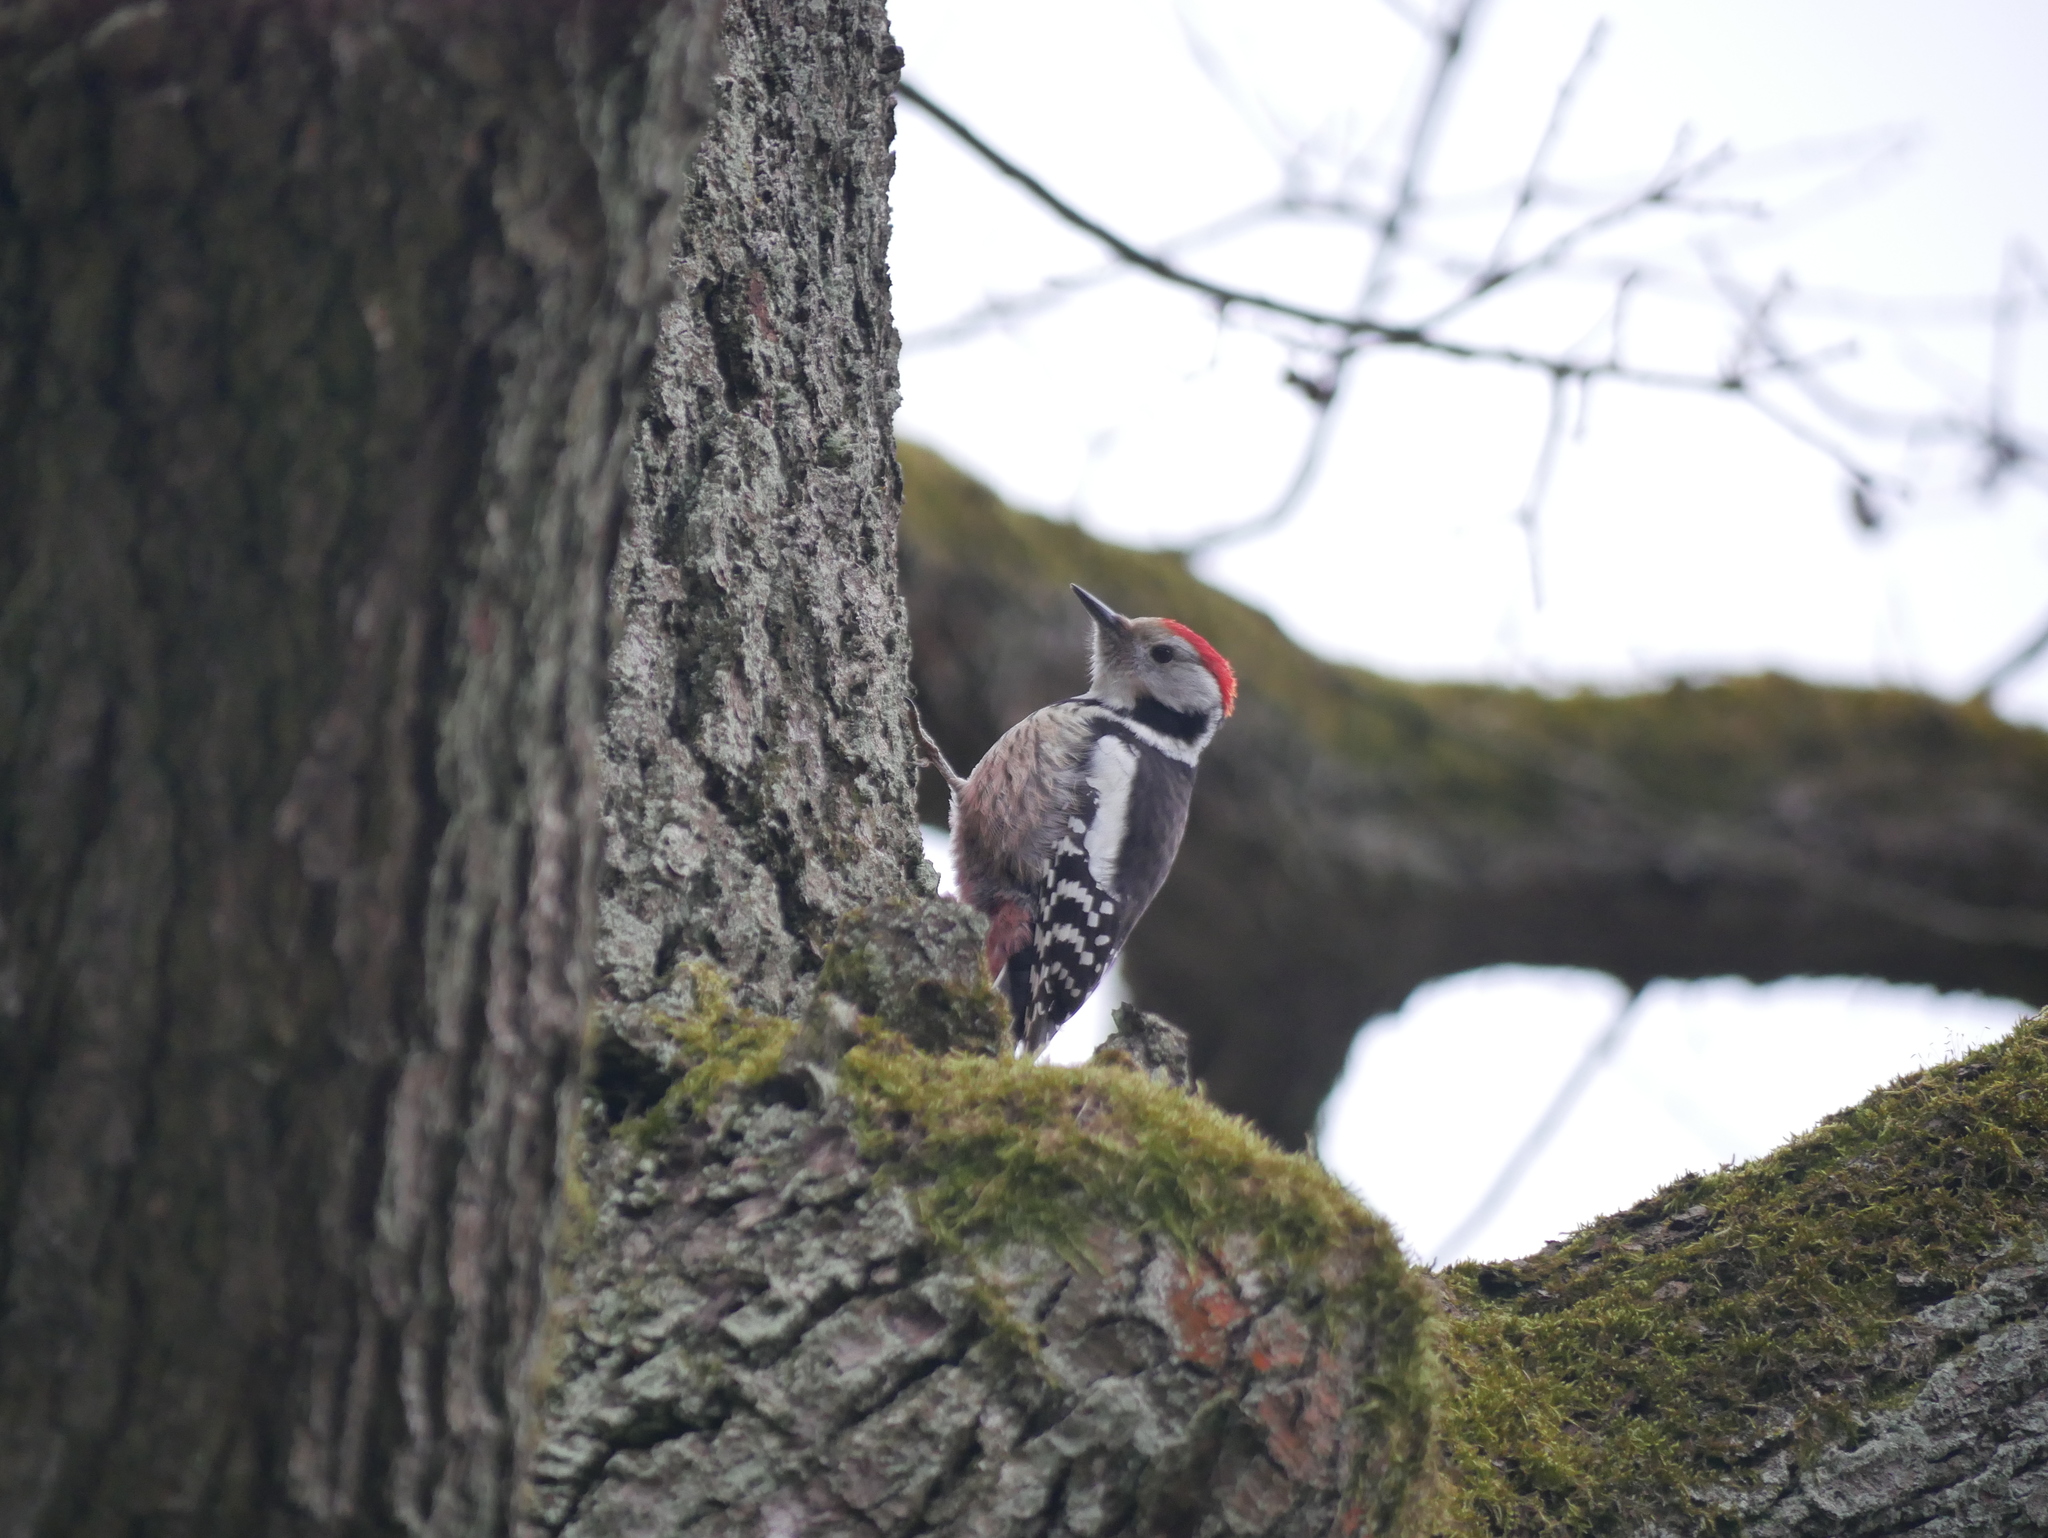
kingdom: Animalia
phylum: Chordata
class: Aves
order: Piciformes
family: Picidae
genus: Dendrocoptes
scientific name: Dendrocoptes medius
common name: Middle spotted woodpecker
